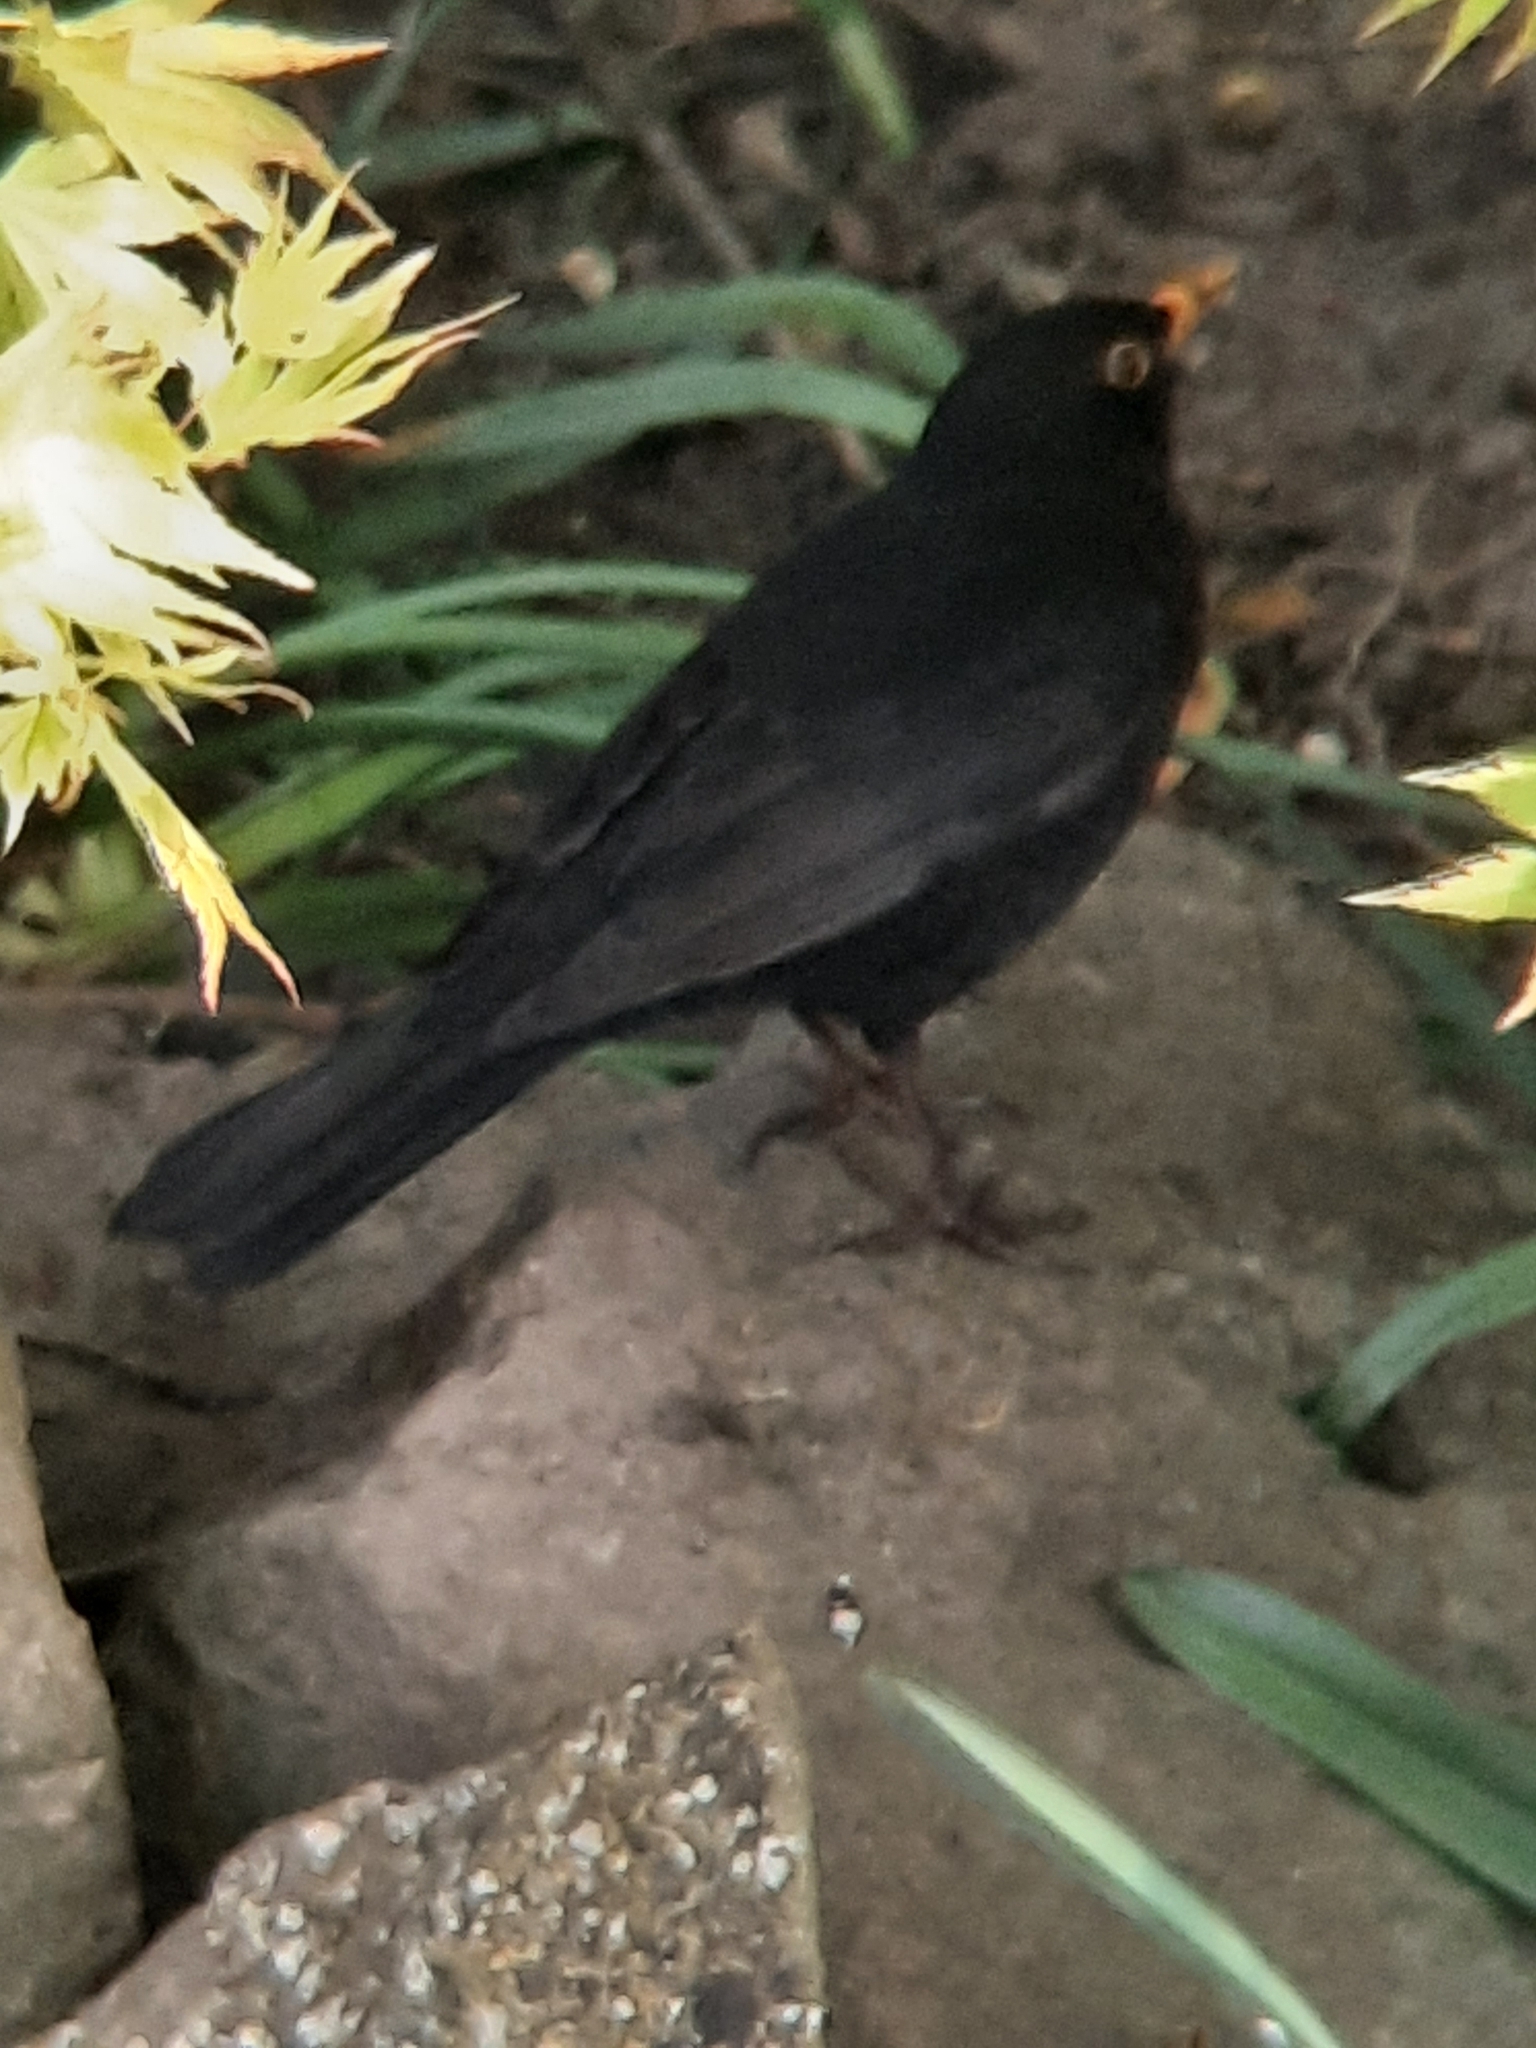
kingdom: Animalia
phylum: Chordata
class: Aves
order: Passeriformes
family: Turdidae
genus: Turdus
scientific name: Turdus merula
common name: Common blackbird
